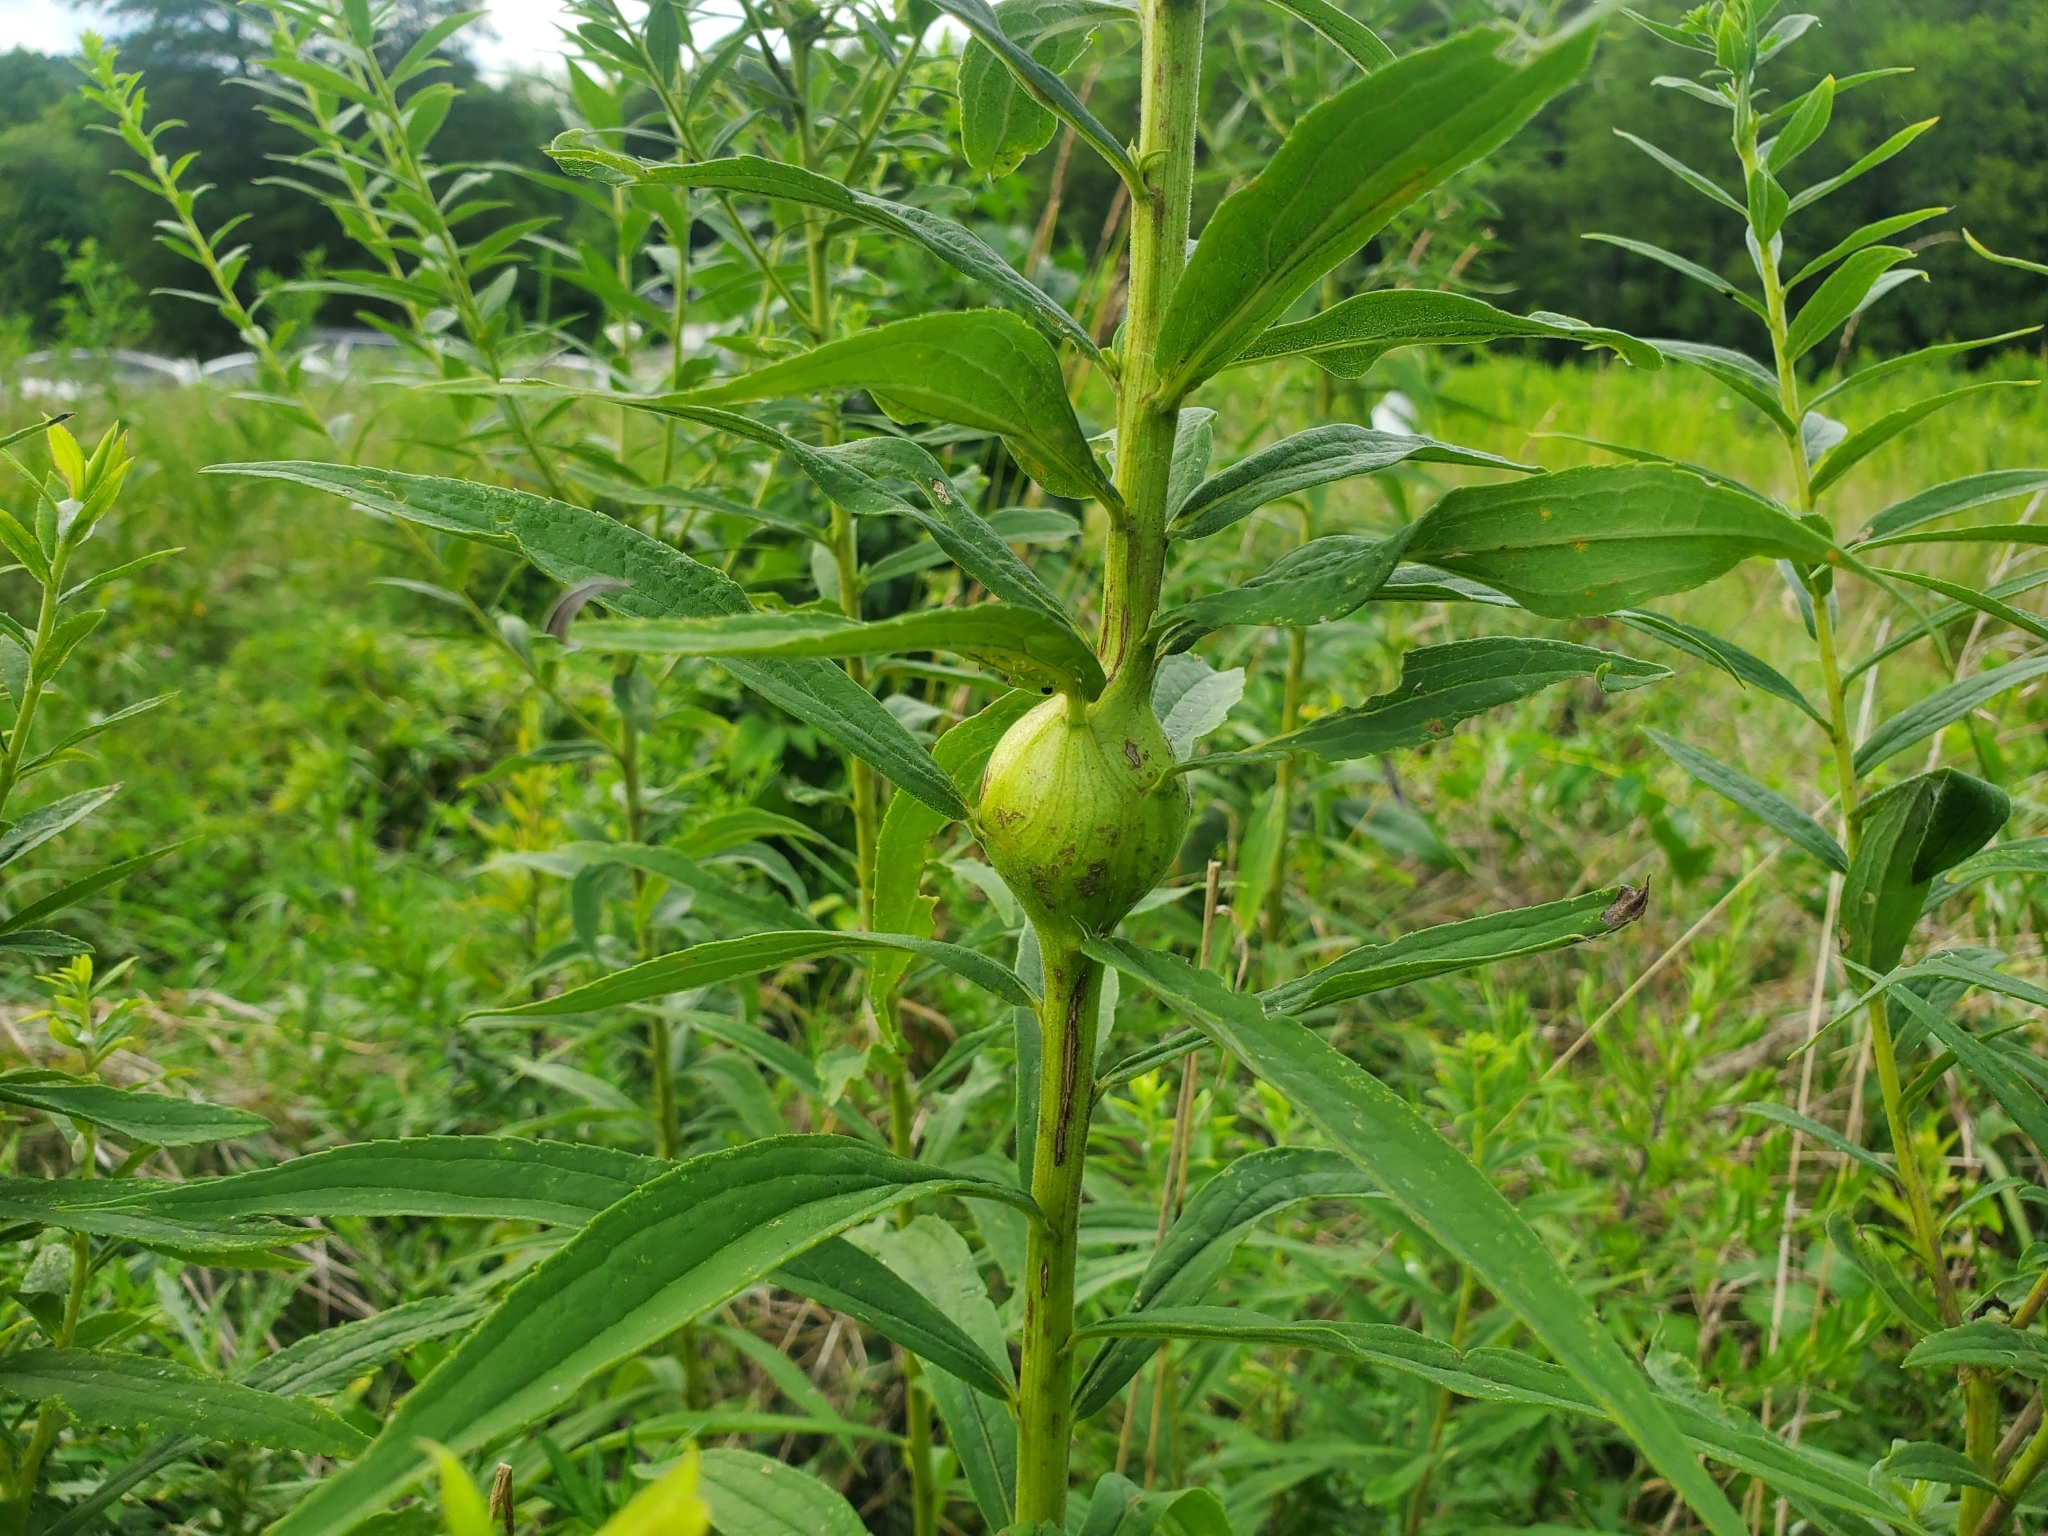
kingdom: Animalia
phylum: Arthropoda
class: Insecta
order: Diptera
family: Tephritidae
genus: Eurosta
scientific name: Eurosta solidaginis
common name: Goldenrod gall fly
